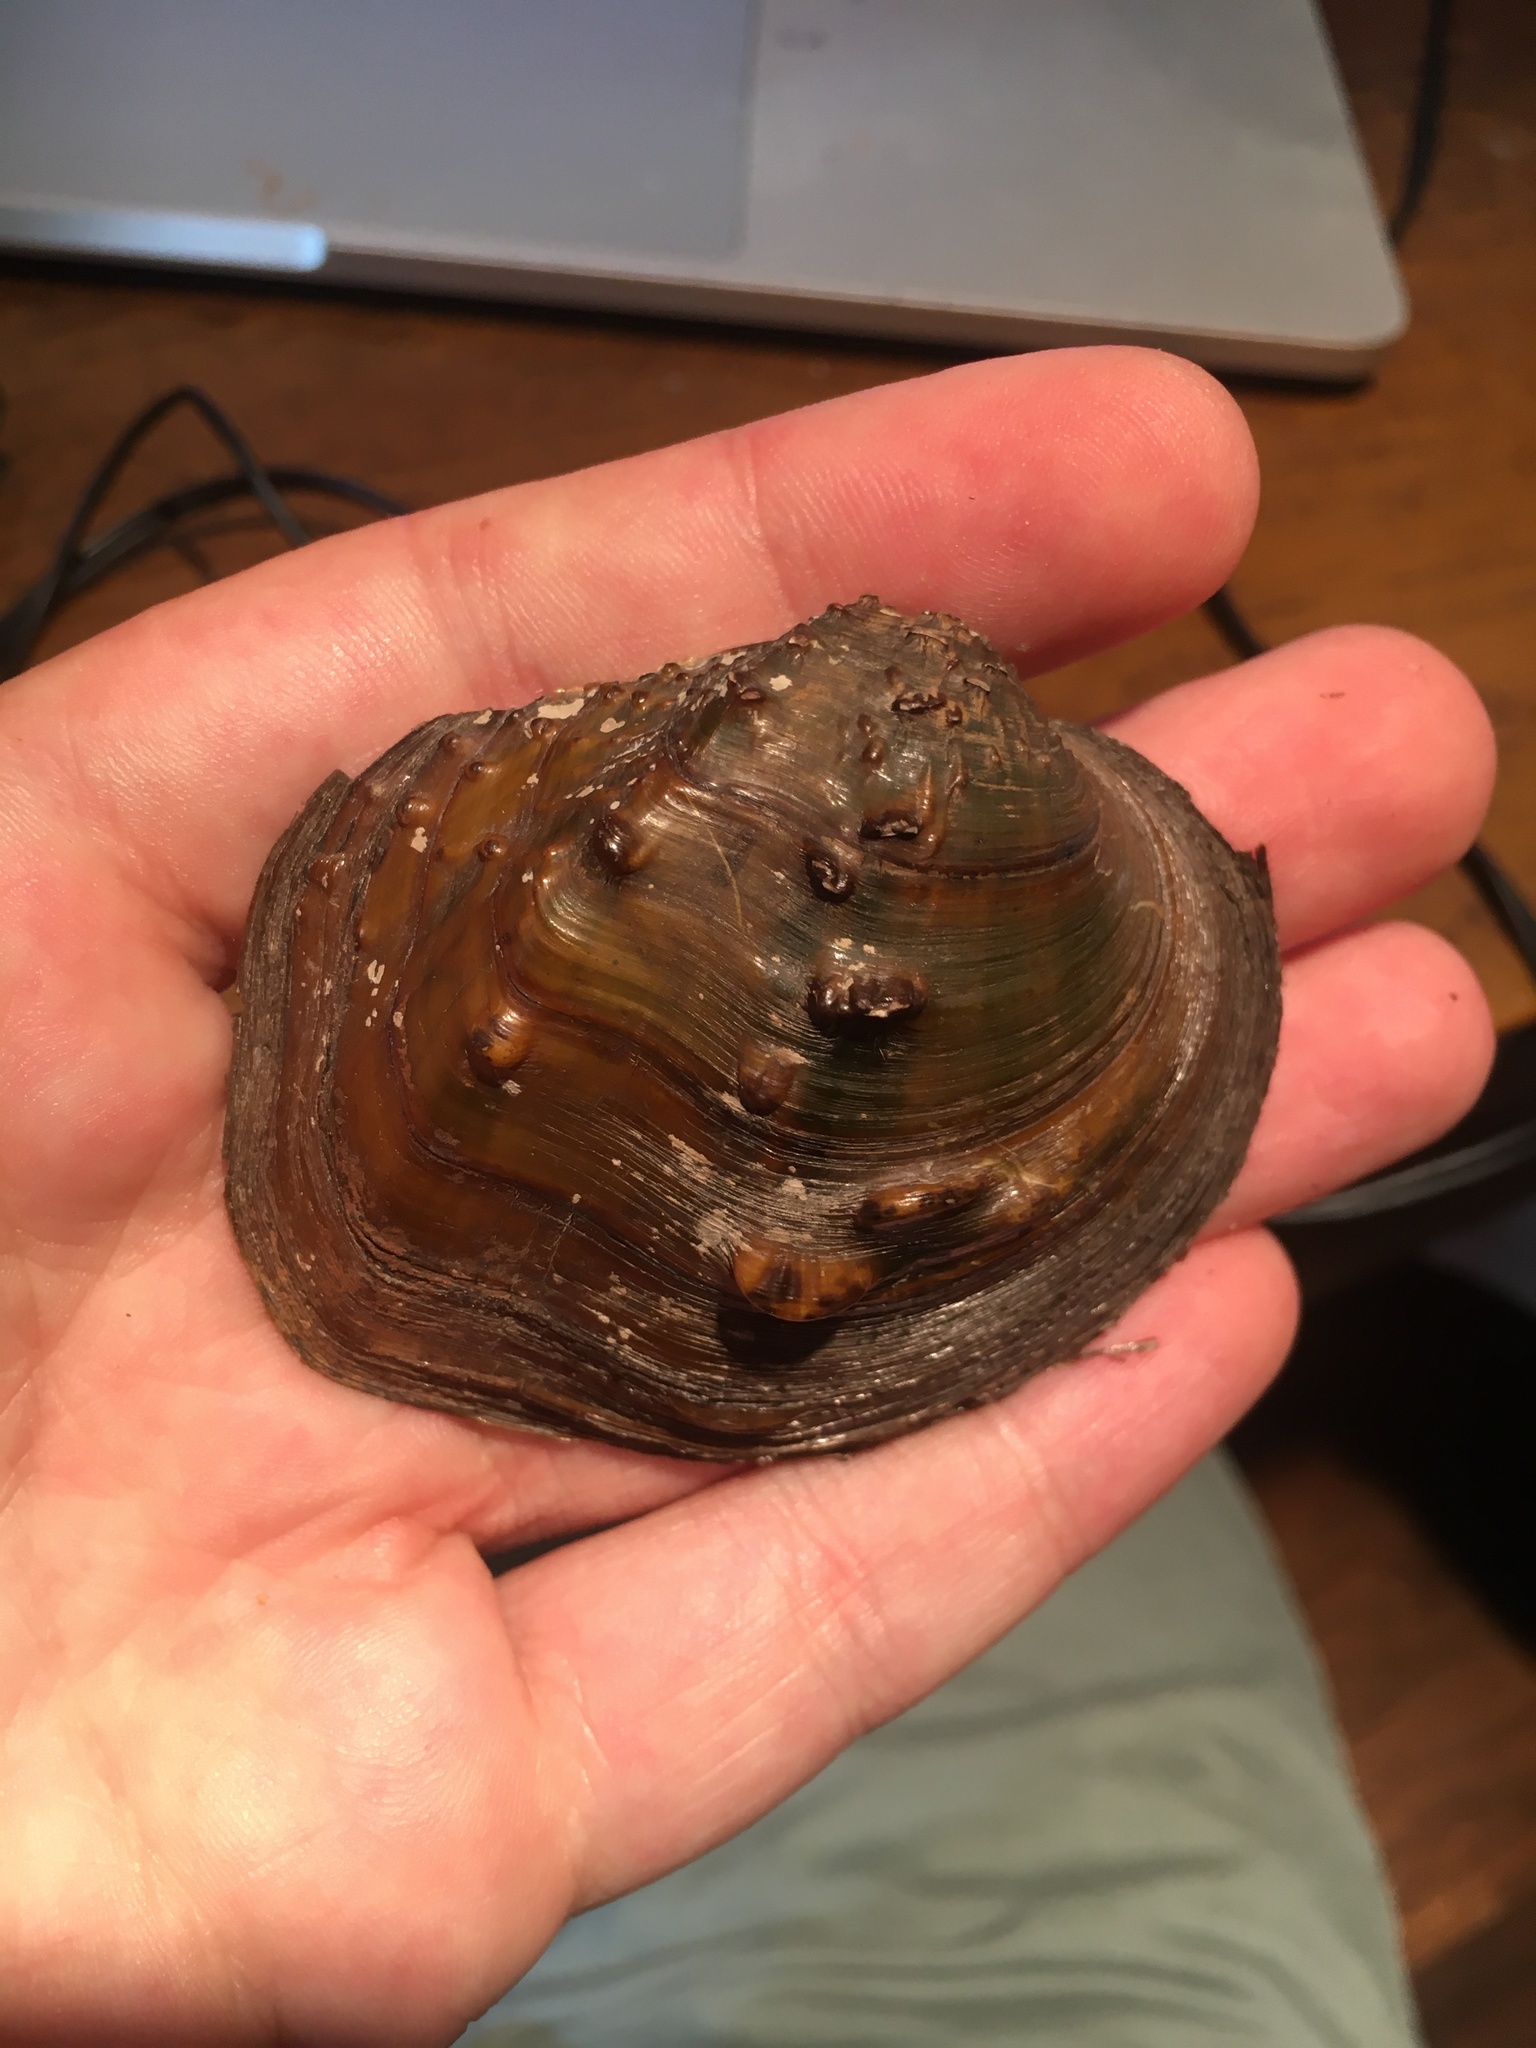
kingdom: Animalia
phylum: Mollusca
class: Bivalvia
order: Unionida
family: Unionidae
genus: Quadrula
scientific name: Quadrula quadrula
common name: Mapleleaf
